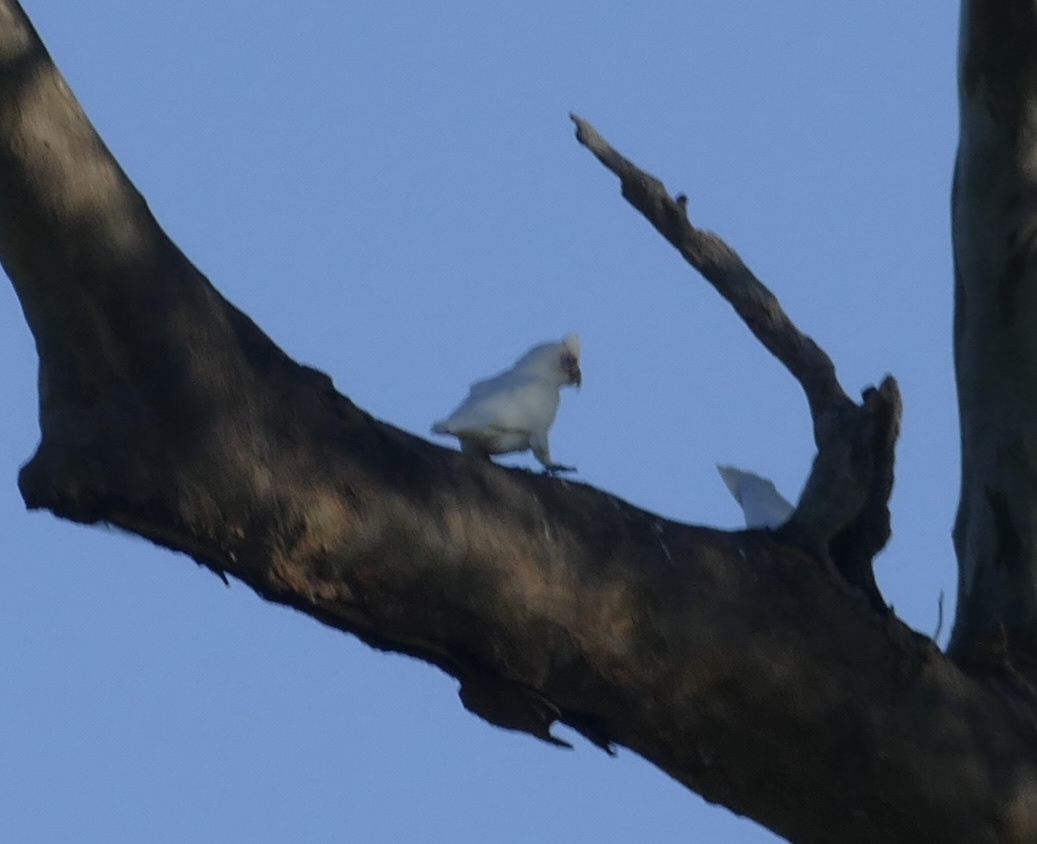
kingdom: Animalia
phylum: Chordata
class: Aves
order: Psittaciformes
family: Psittacidae
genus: Cacatua
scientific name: Cacatua tenuirostris
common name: Long-billed corella
